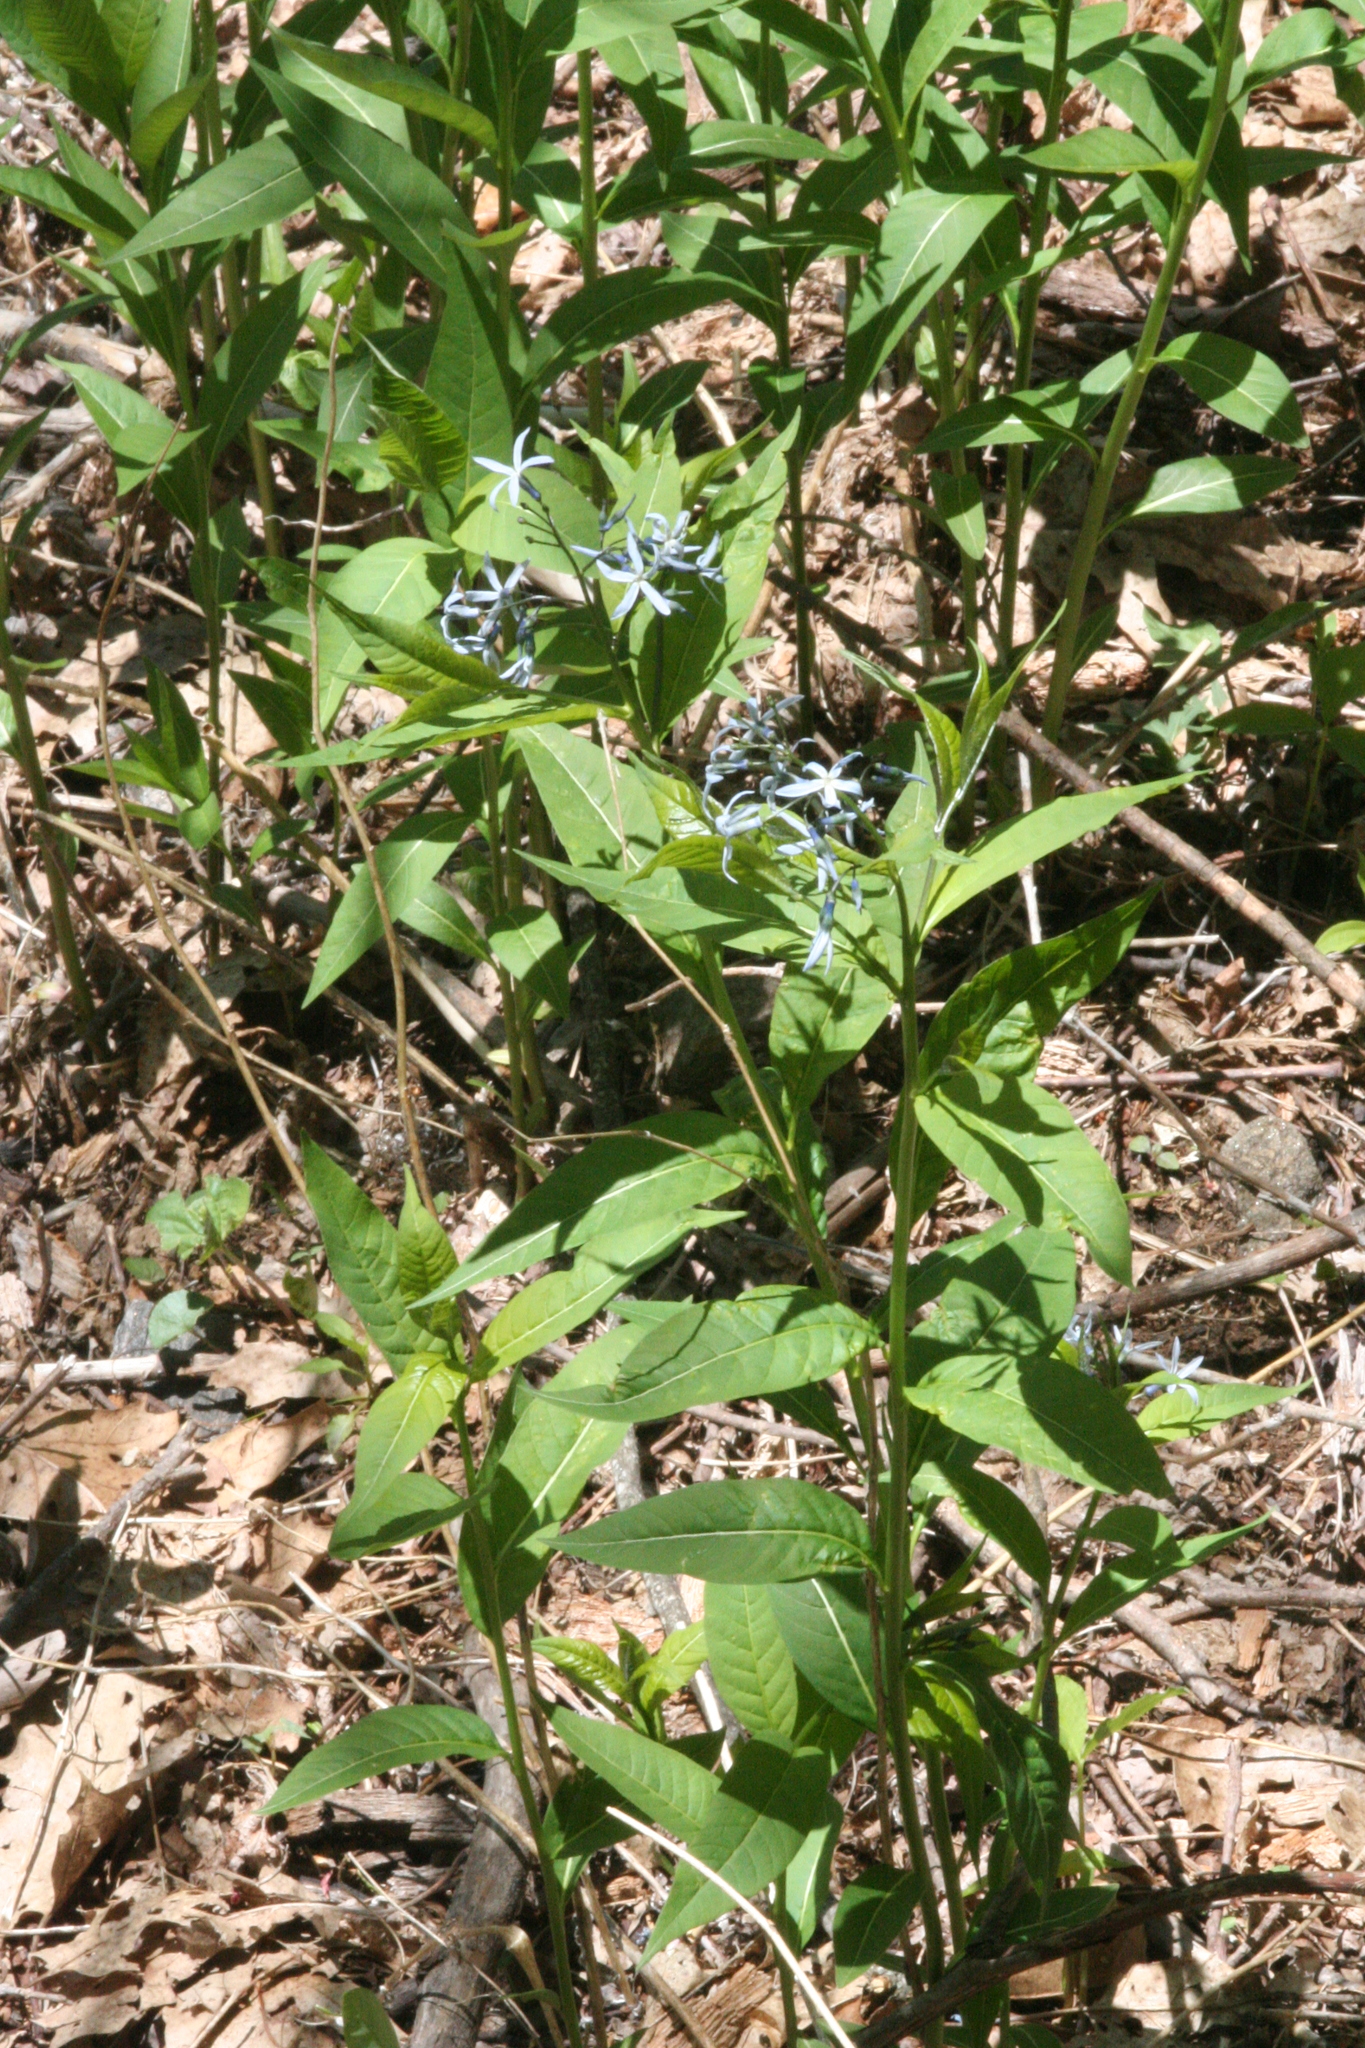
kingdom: Plantae
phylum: Tracheophyta
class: Magnoliopsida
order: Gentianales
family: Apocynaceae
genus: Amsonia
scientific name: Amsonia tabernaemontana
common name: Texas-star
